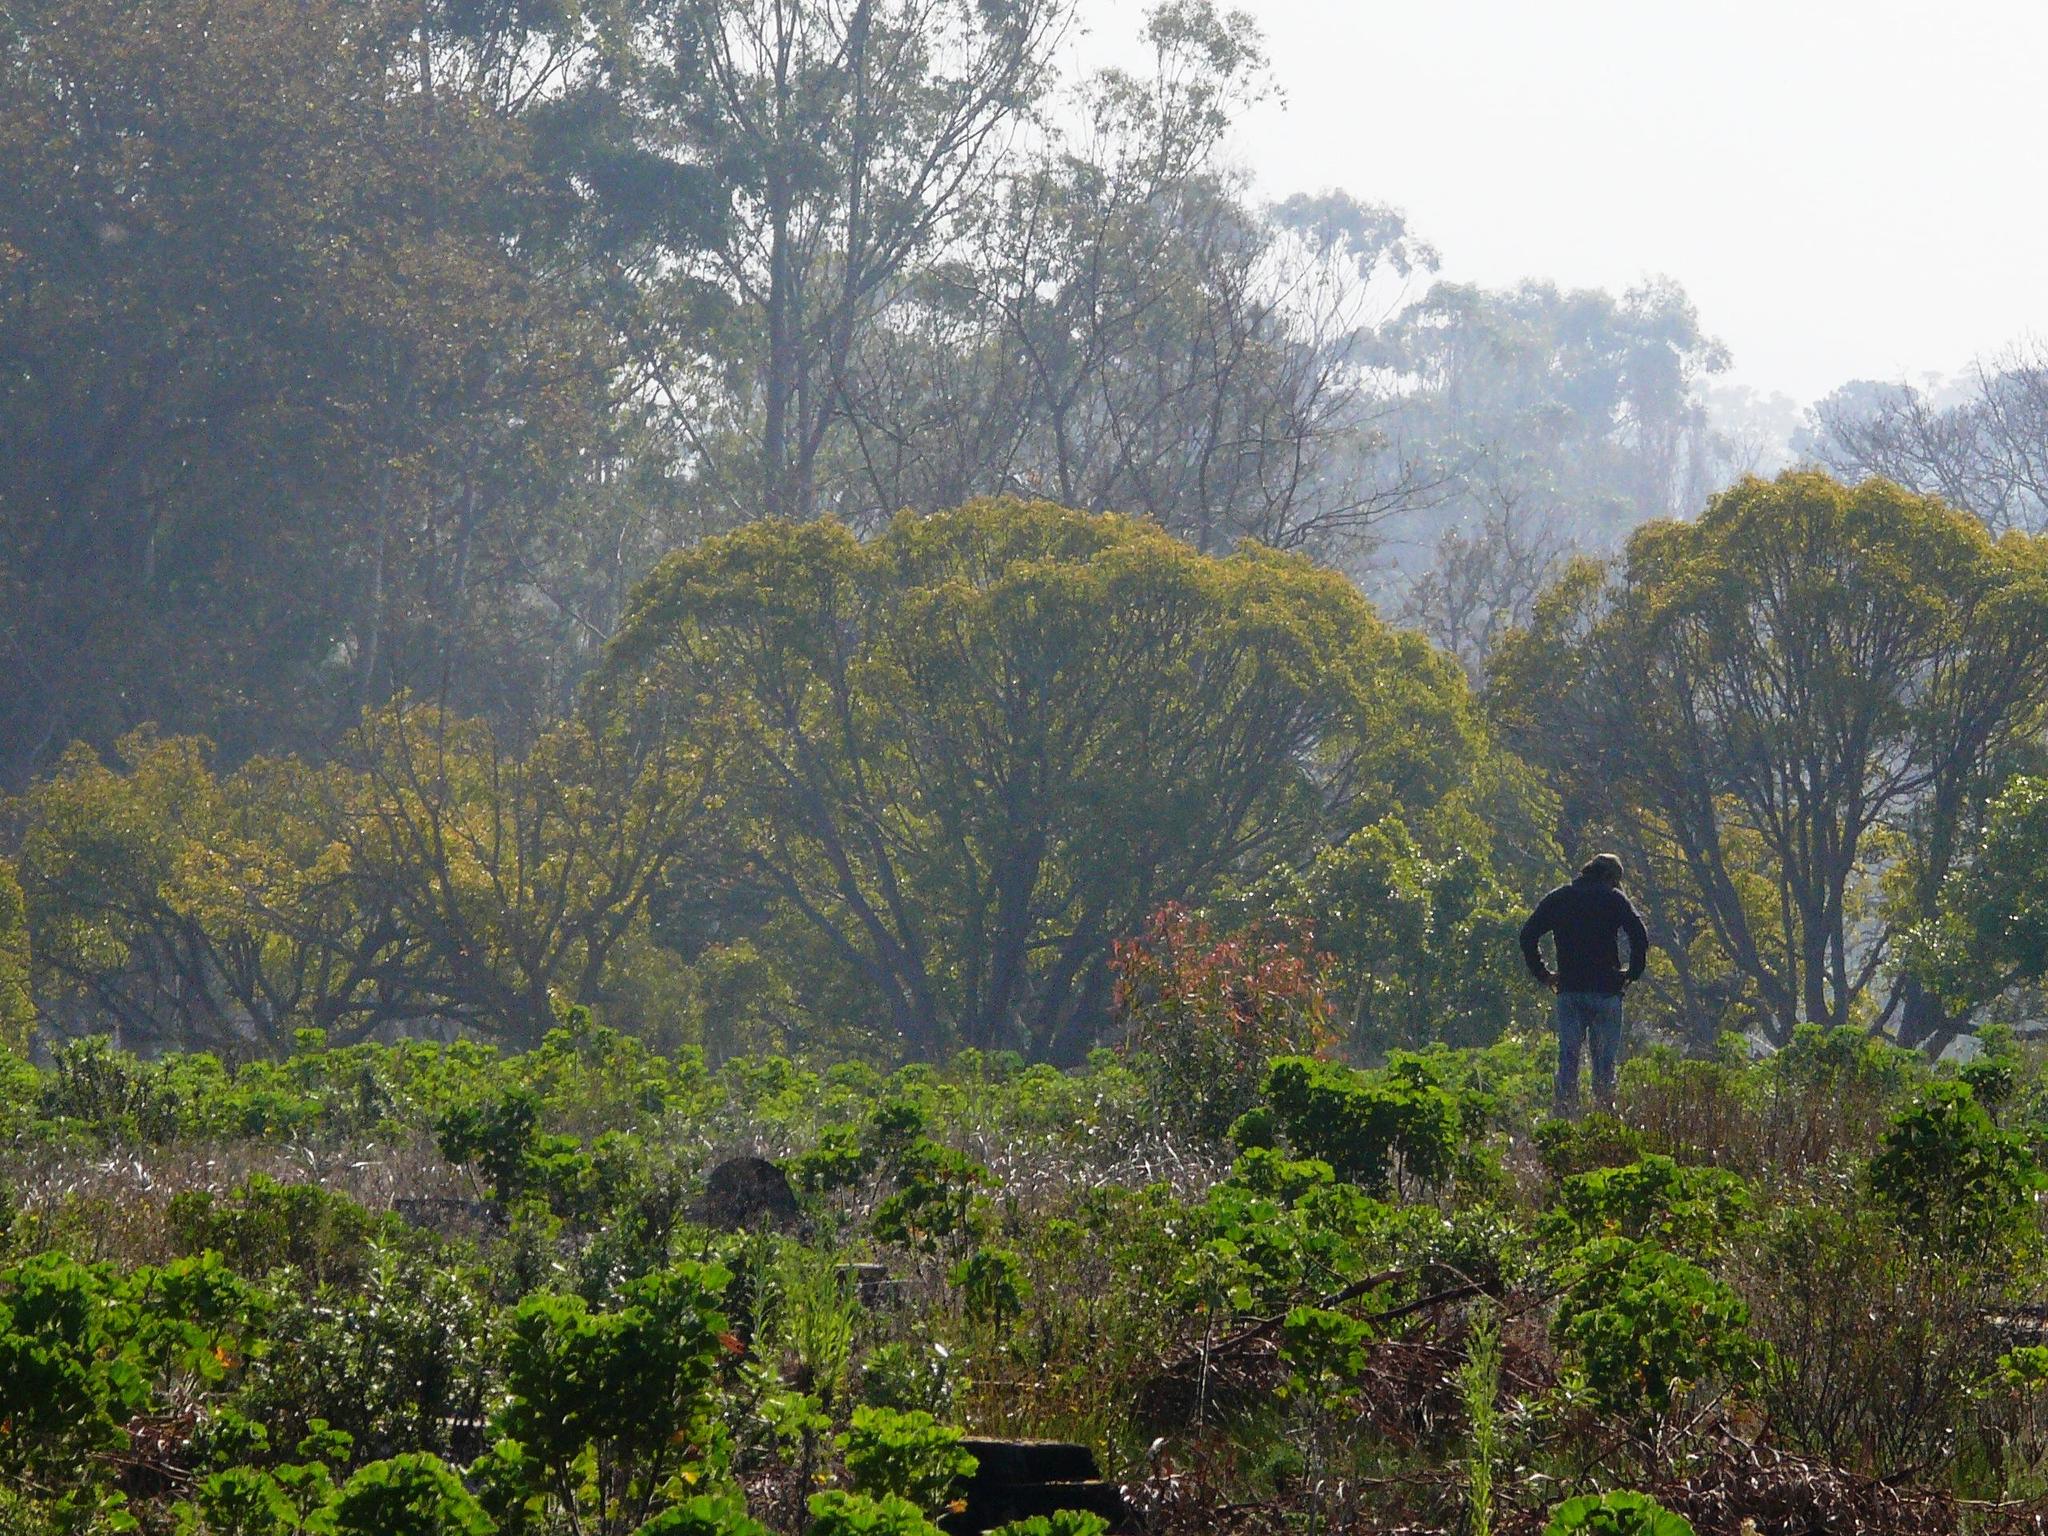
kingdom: Plantae
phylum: Tracheophyta
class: Magnoliopsida
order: Laurales
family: Lauraceae
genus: Cinnamomum
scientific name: Cinnamomum camphora
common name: Camphortree
